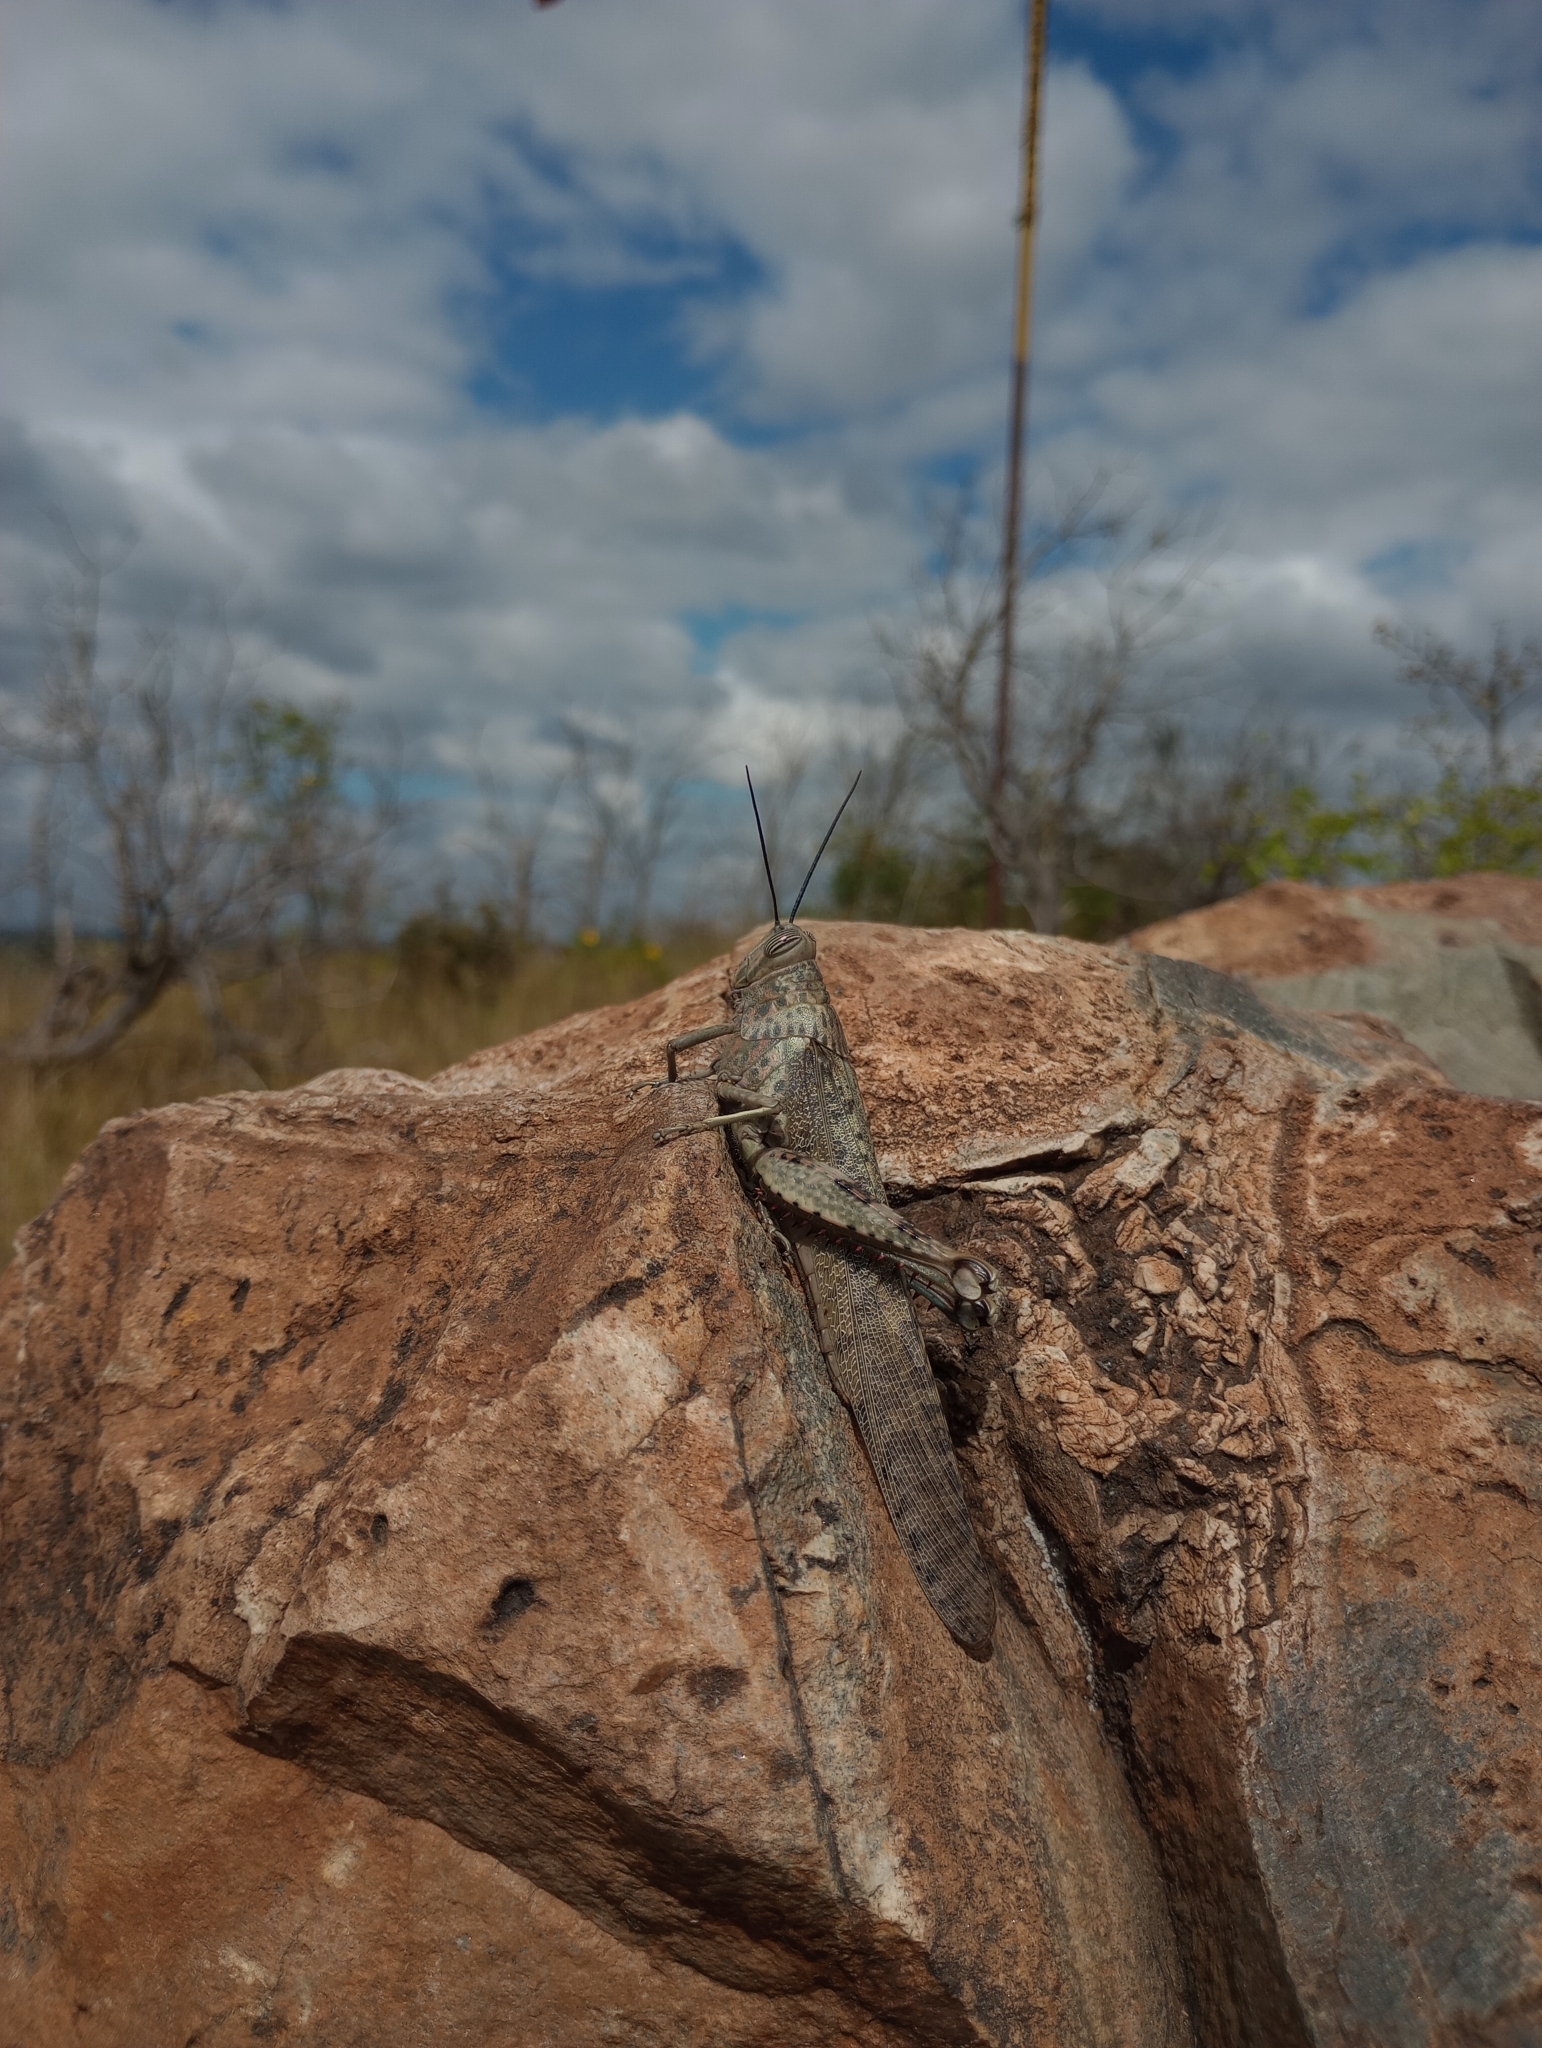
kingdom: Animalia
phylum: Arthropoda
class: Insecta
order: Orthoptera
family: Acrididae
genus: Anacridium
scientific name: Anacridium flavescens
